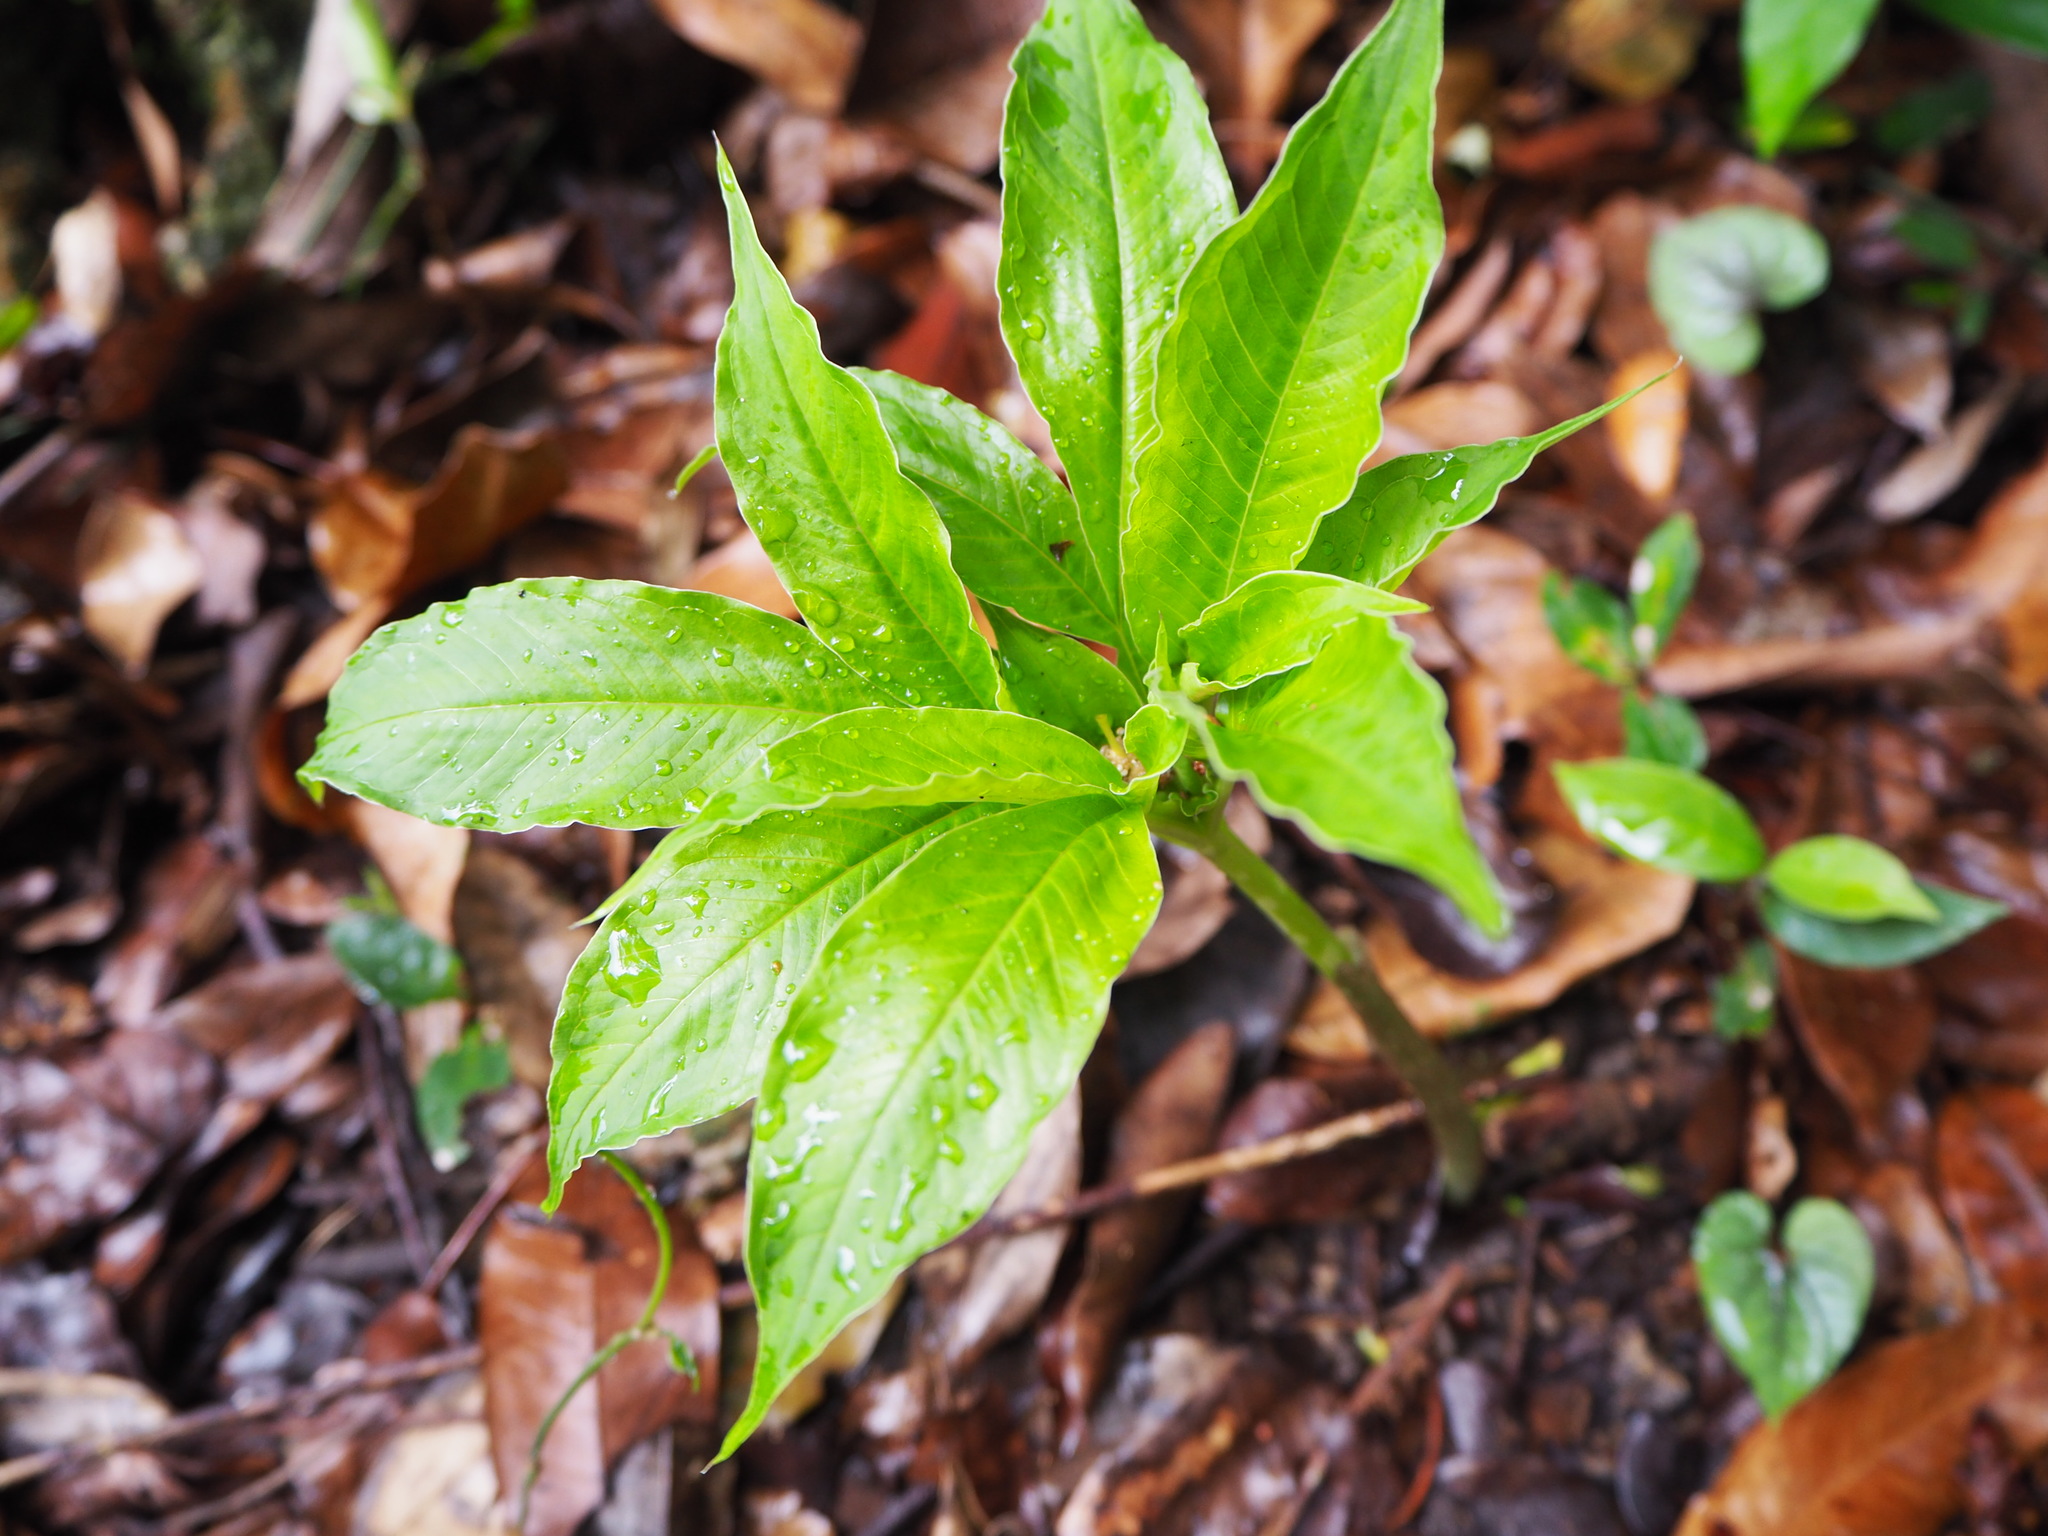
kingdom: Plantae
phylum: Tracheophyta
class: Liliopsida
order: Alismatales
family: Araceae
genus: Amorphophallus
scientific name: Amorphophallus henryi
